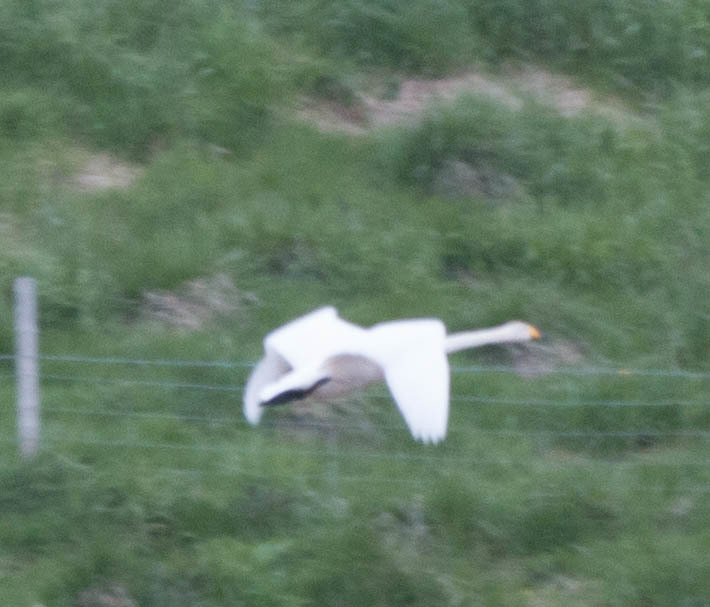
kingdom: Animalia
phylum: Chordata
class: Aves
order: Anseriformes
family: Anatidae
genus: Cygnus
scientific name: Cygnus cygnus
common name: Whooper swan
